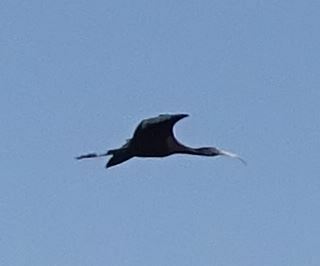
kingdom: Animalia
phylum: Chordata
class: Aves
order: Pelecaniformes
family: Threskiornithidae
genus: Plegadis
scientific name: Plegadis falcinellus
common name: Glossy ibis
